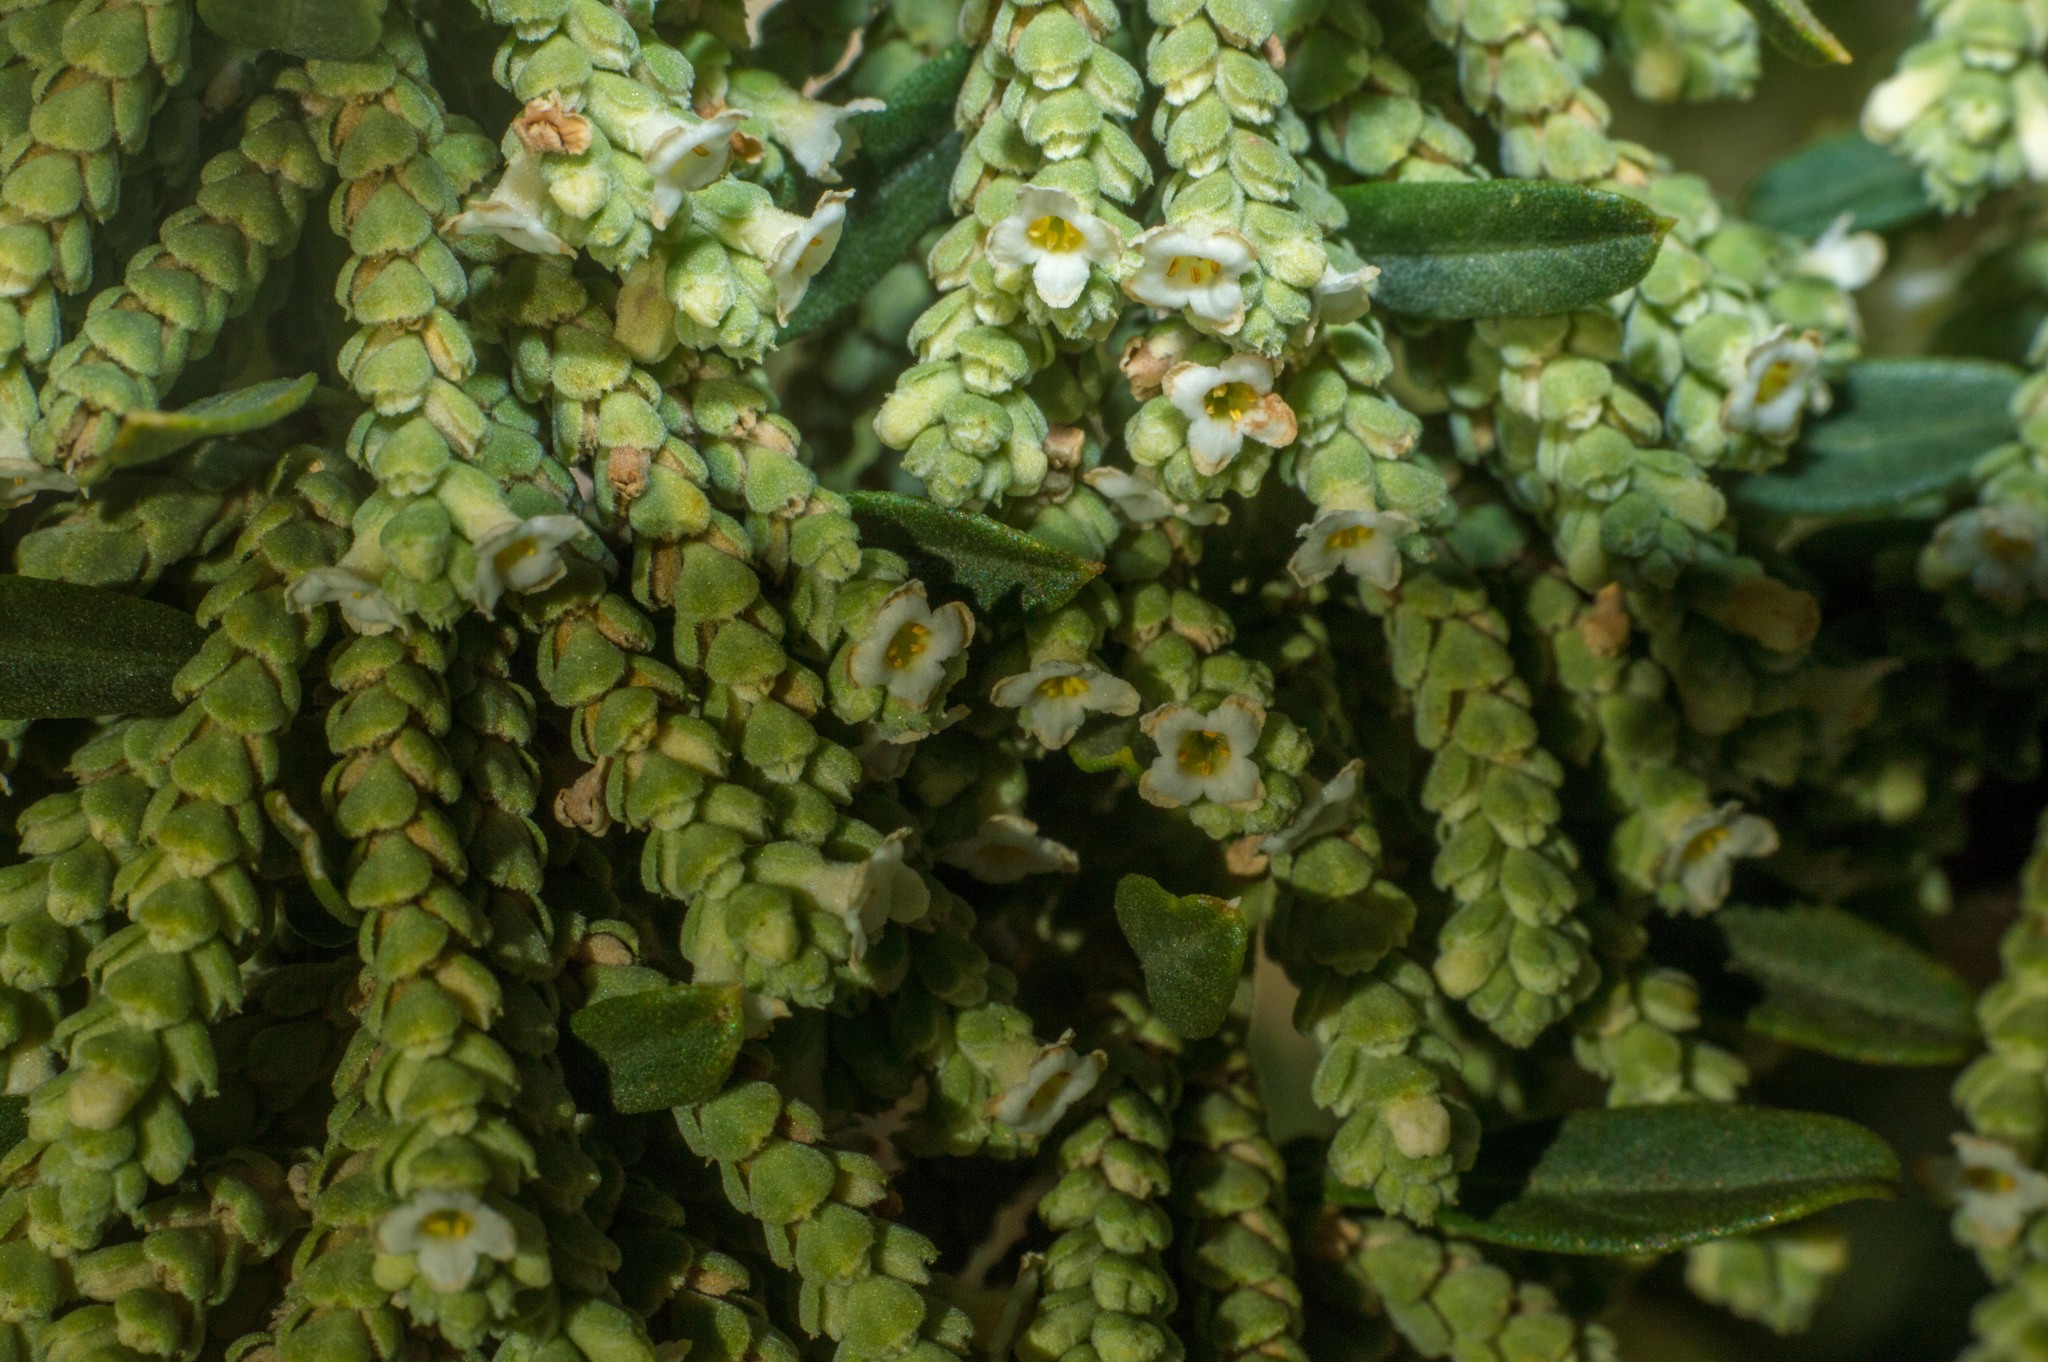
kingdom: Plantae
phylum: Tracheophyta
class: Magnoliopsida
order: Lamiales
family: Verbenaceae
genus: Aloysia
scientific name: Aloysia polystachya
